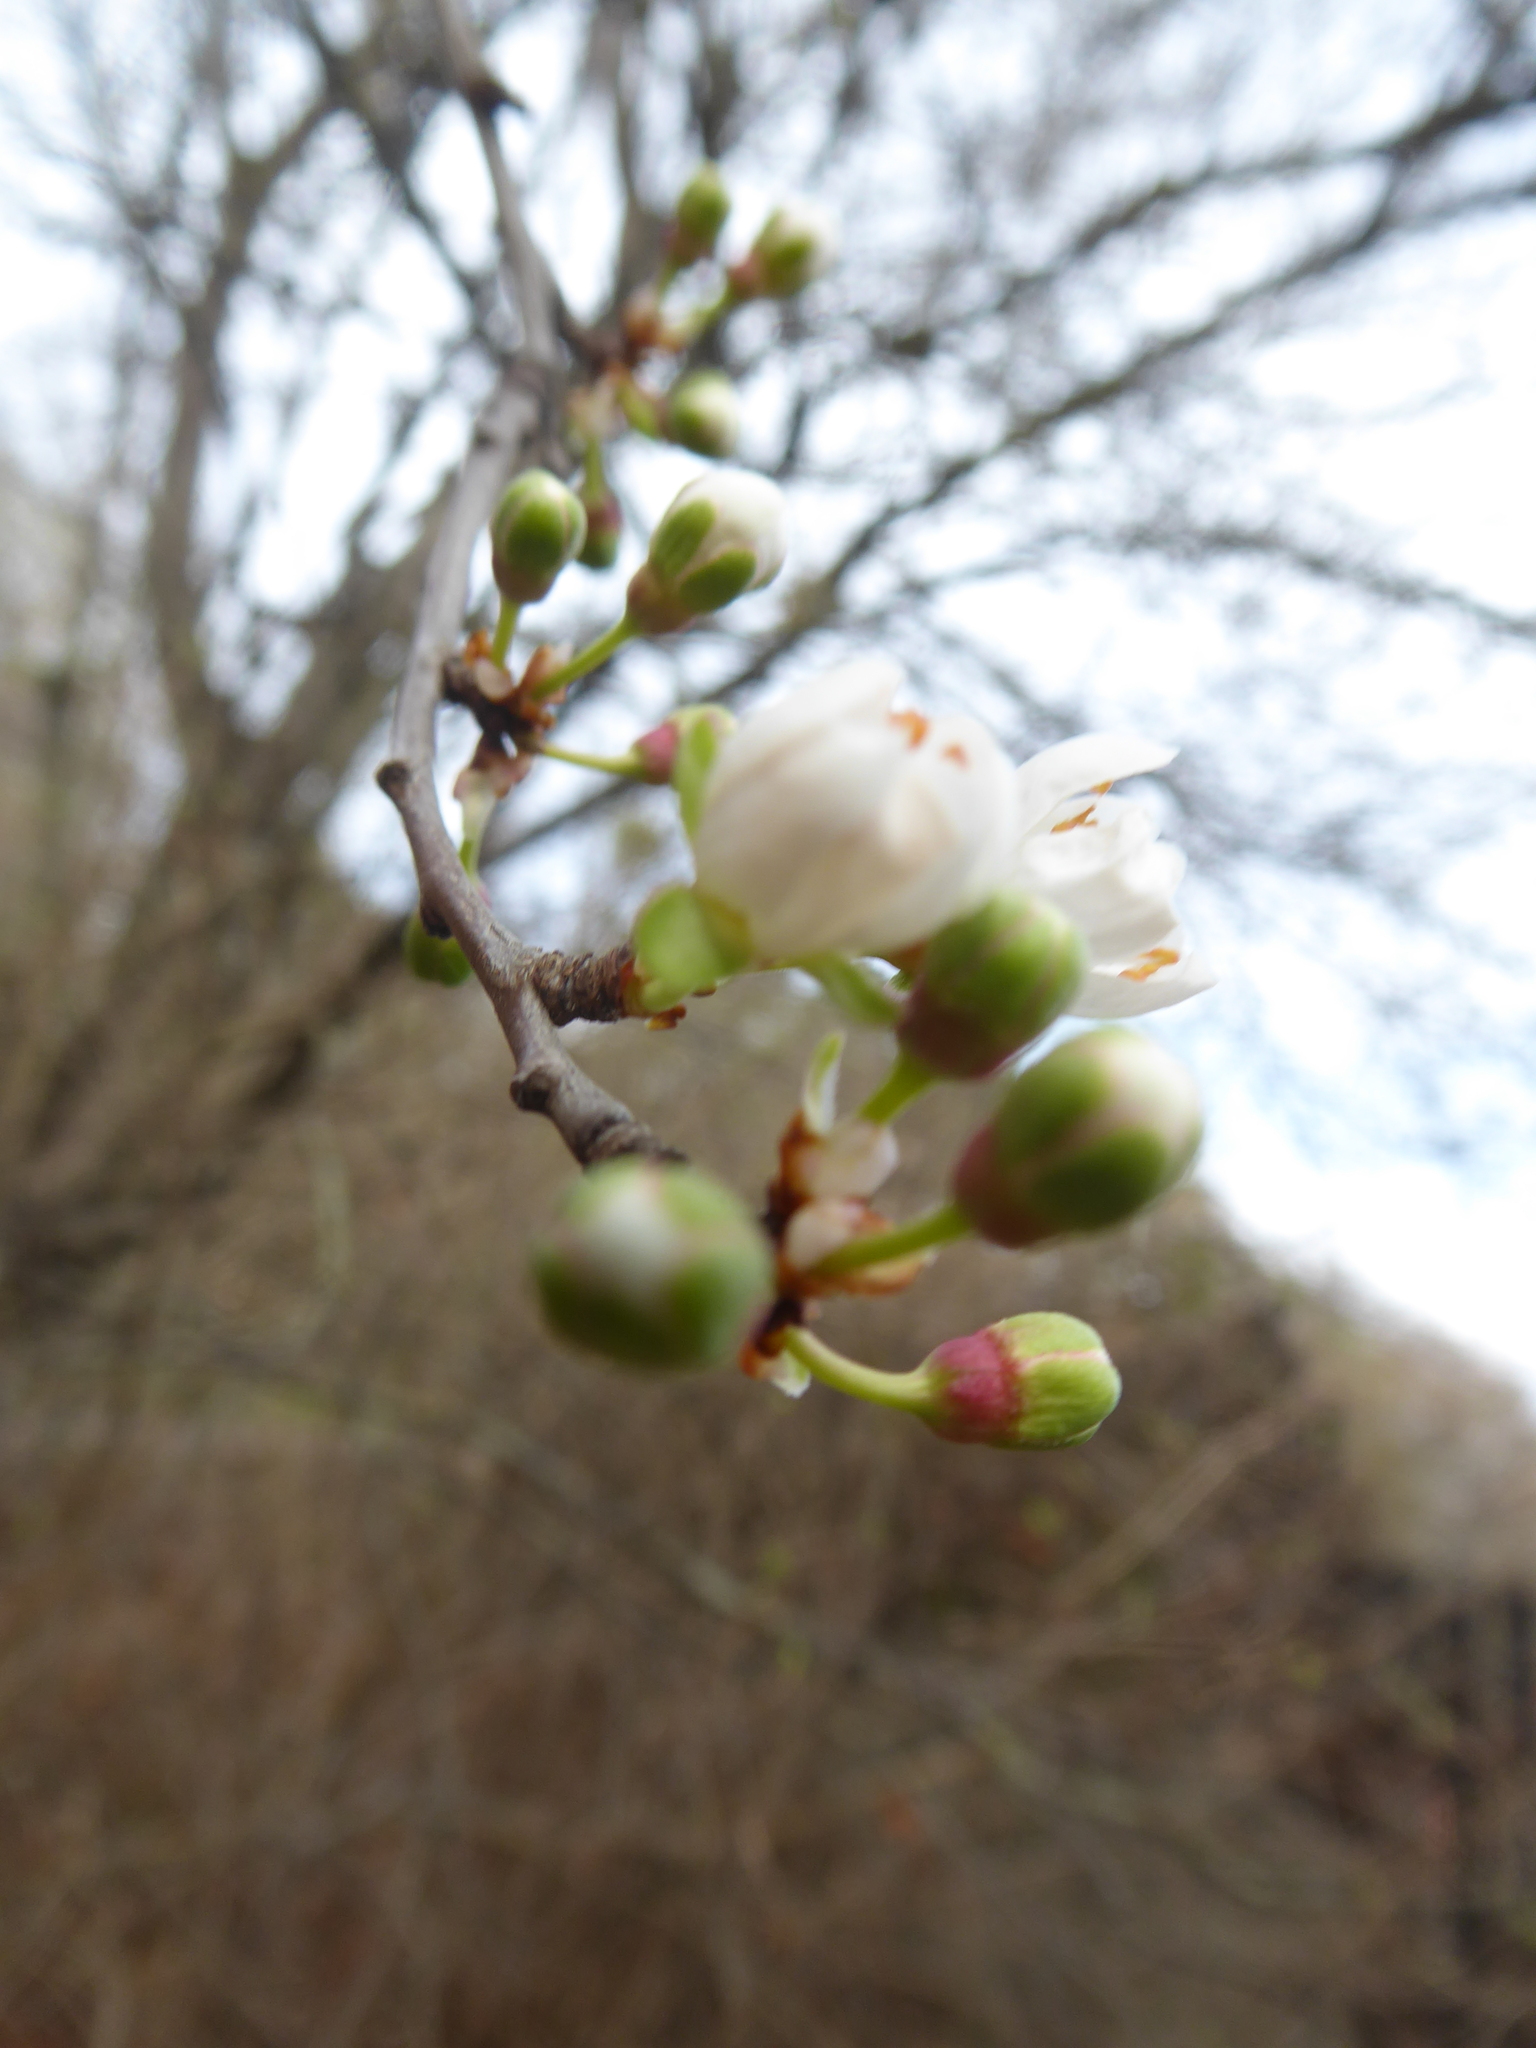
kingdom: Plantae
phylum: Tracheophyta
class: Magnoliopsida
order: Rosales
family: Rosaceae
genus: Prunus
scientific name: Prunus cerasifera
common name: Cherry plum
